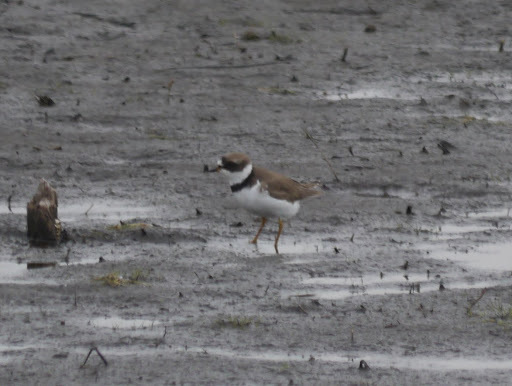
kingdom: Animalia
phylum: Chordata
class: Aves
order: Charadriiformes
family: Charadriidae
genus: Charadrius
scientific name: Charadrius semipalmatus
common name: Semipalmated plover
